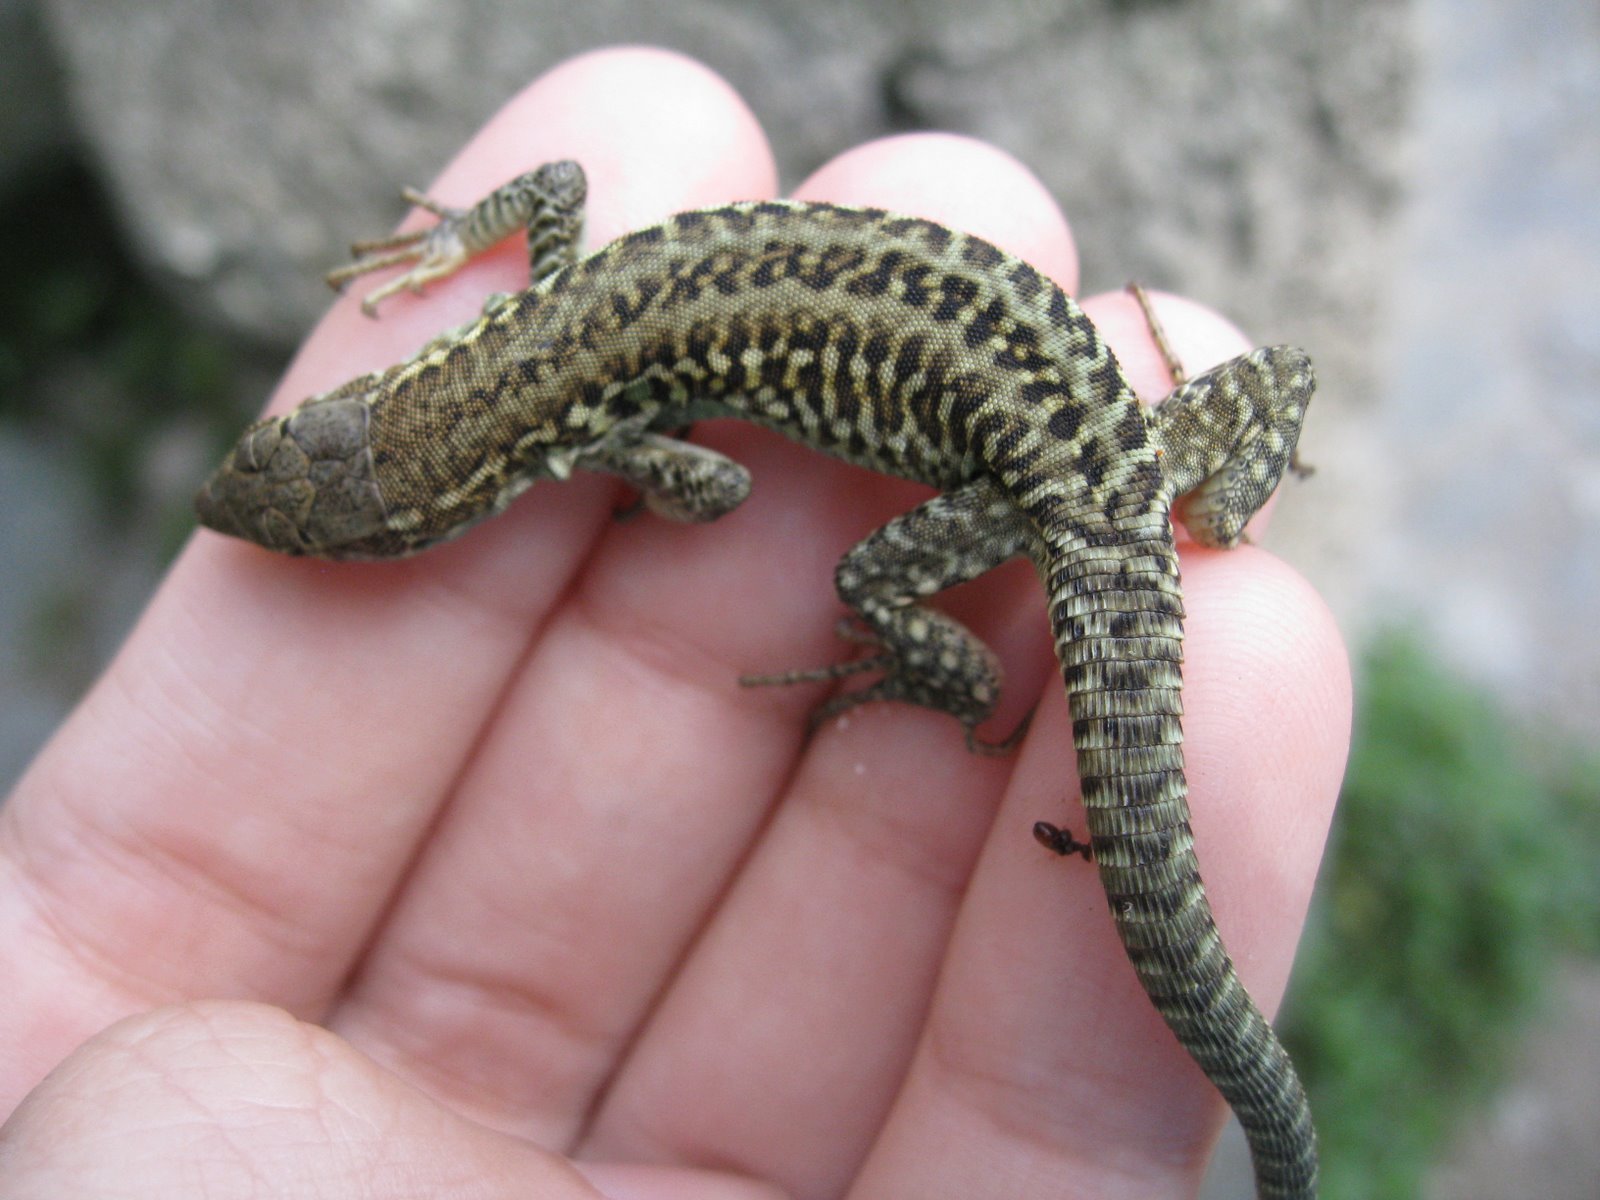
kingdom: Animalia
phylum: Chordata
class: Squamata
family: Lacertidae
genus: Podarcis
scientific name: Podarcis siculus
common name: Italian wall lizard
